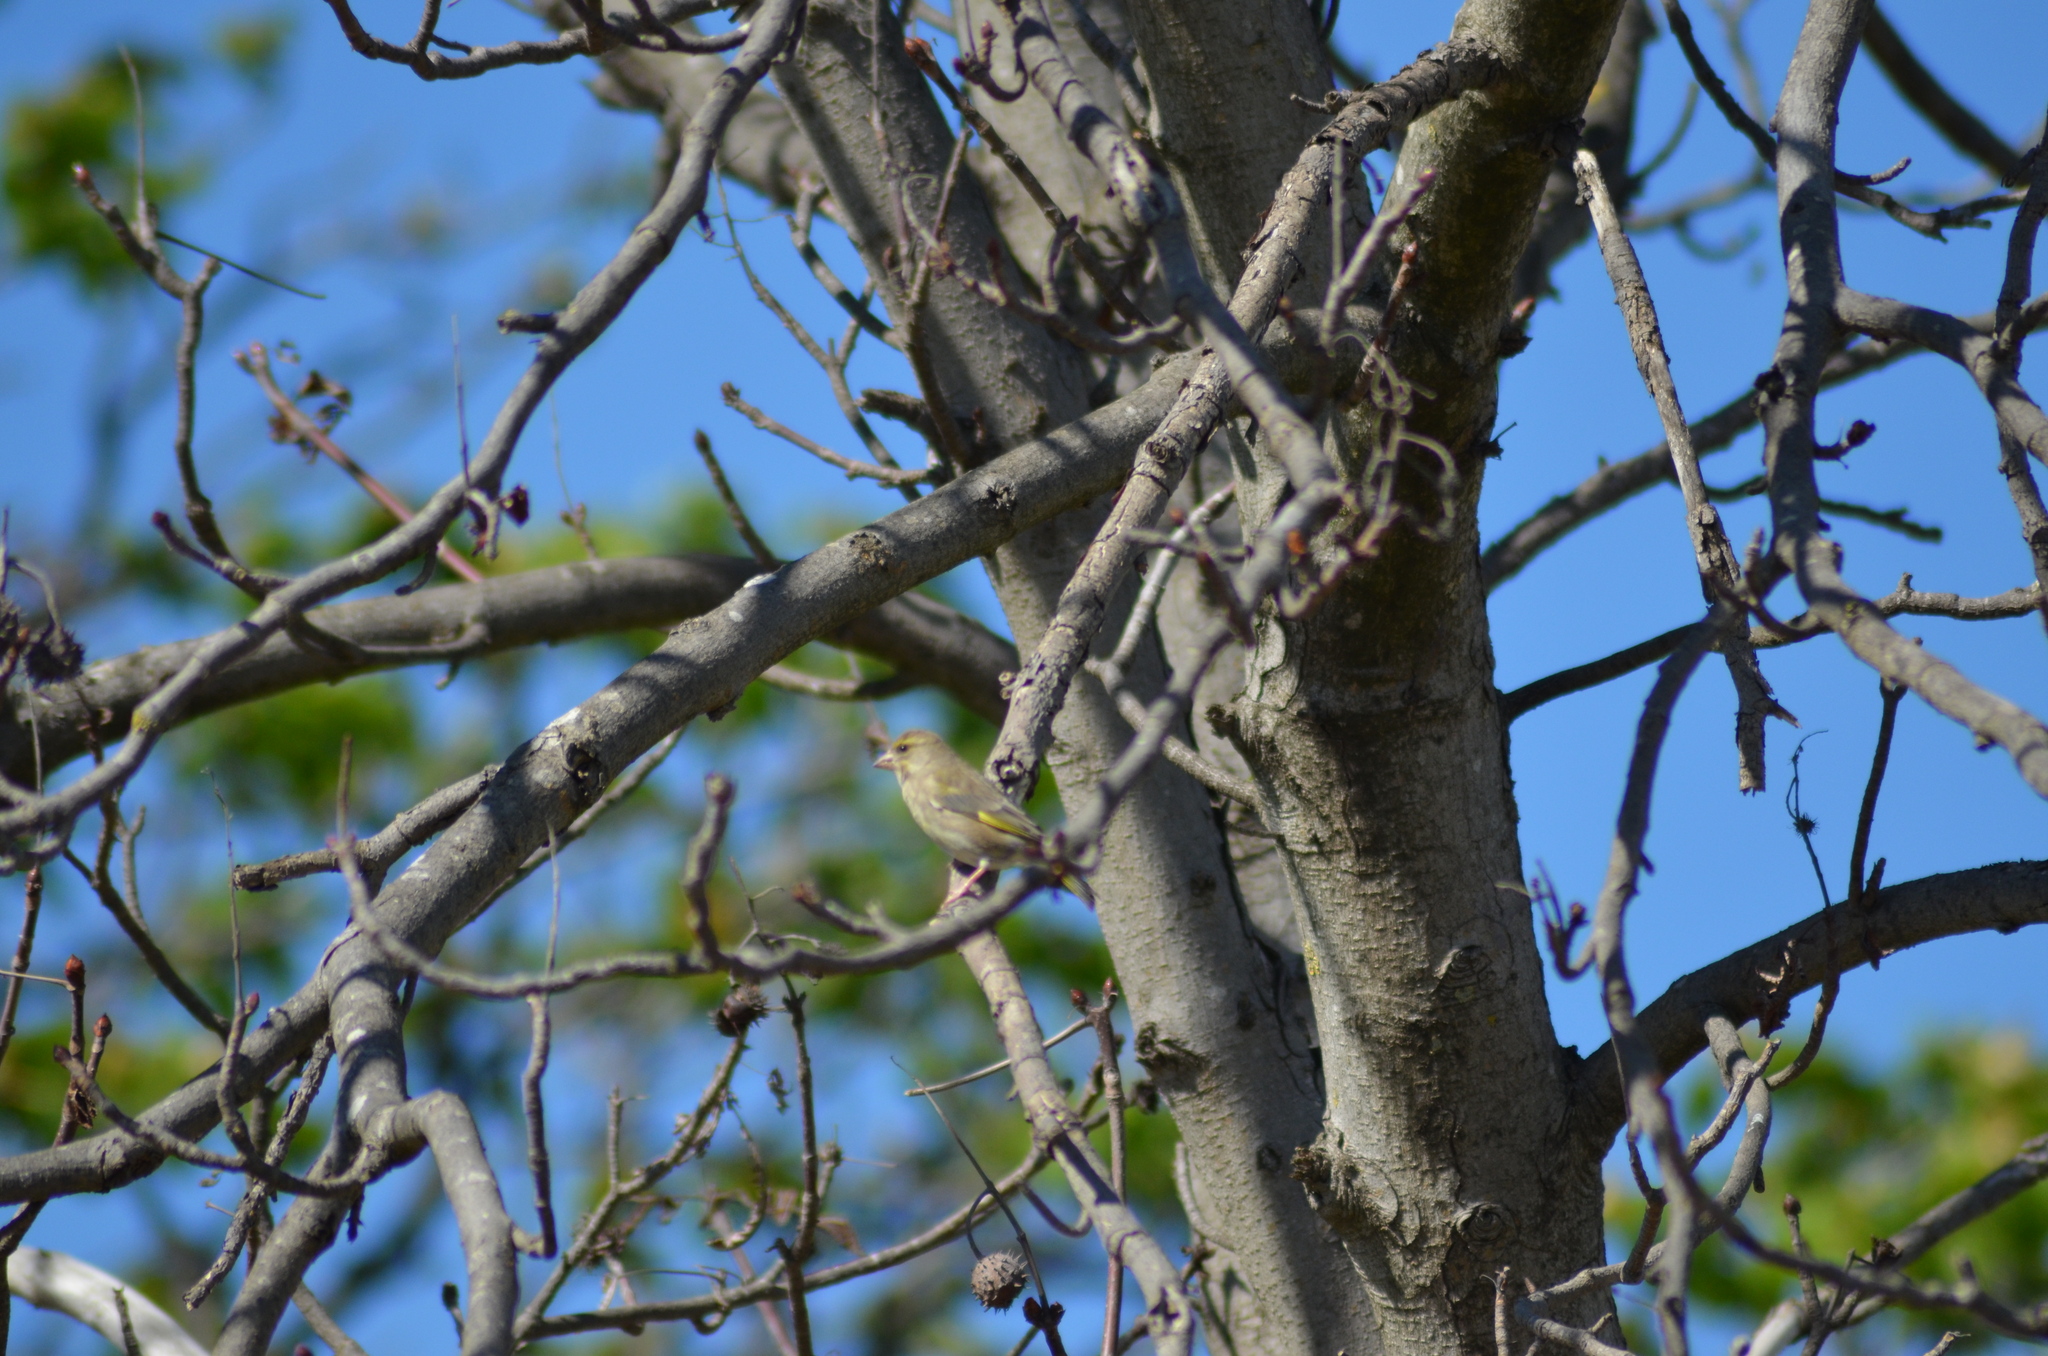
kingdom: Plantae
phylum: Tracheophyta
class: Liliopsida
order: Poales
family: Poaceae
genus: Chloris
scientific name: Chloris chloris
